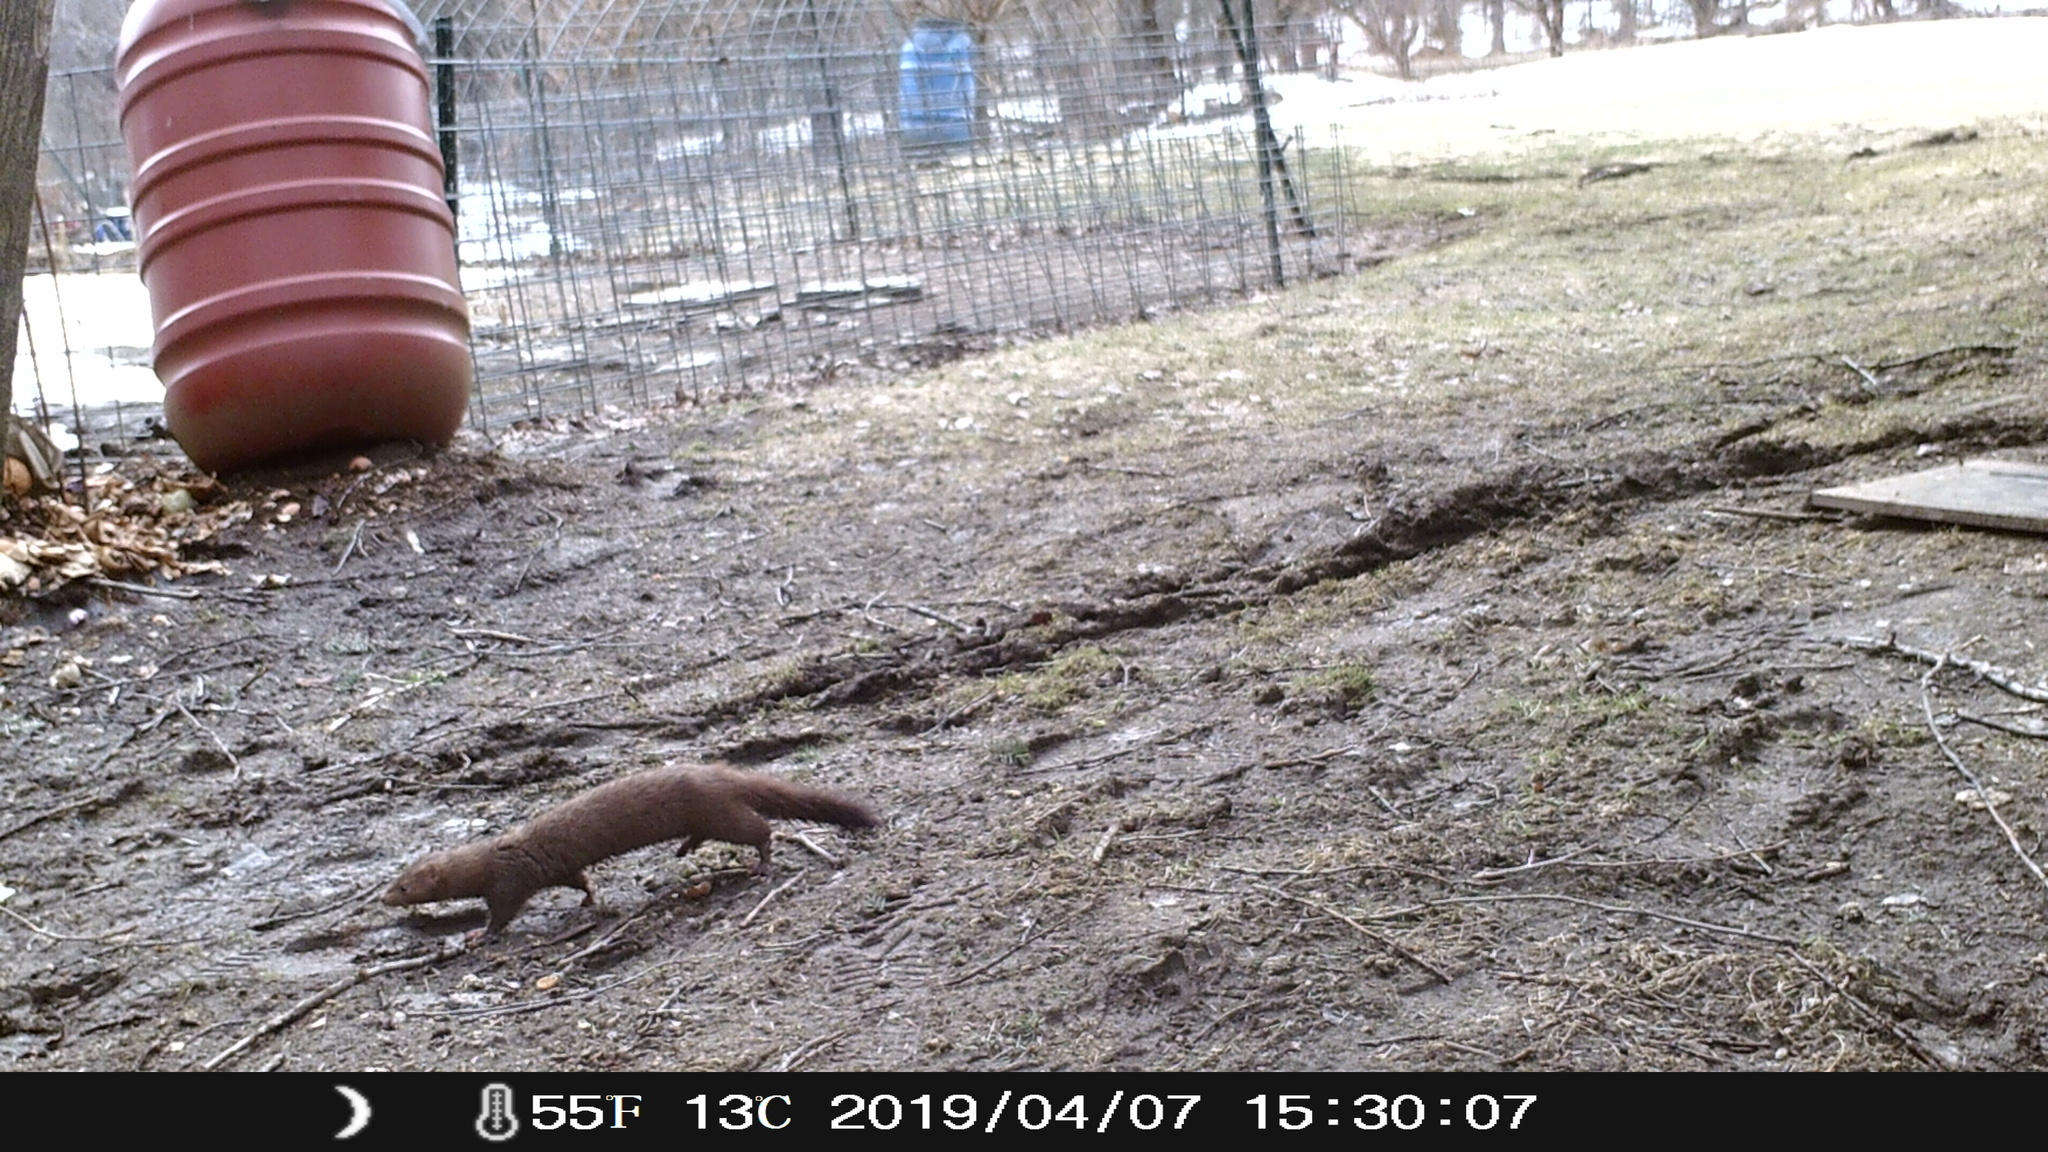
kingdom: Animalia
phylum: Chordata
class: Mammalia
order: Carnivora
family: Mustelidae
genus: Mustela
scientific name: Mustela
